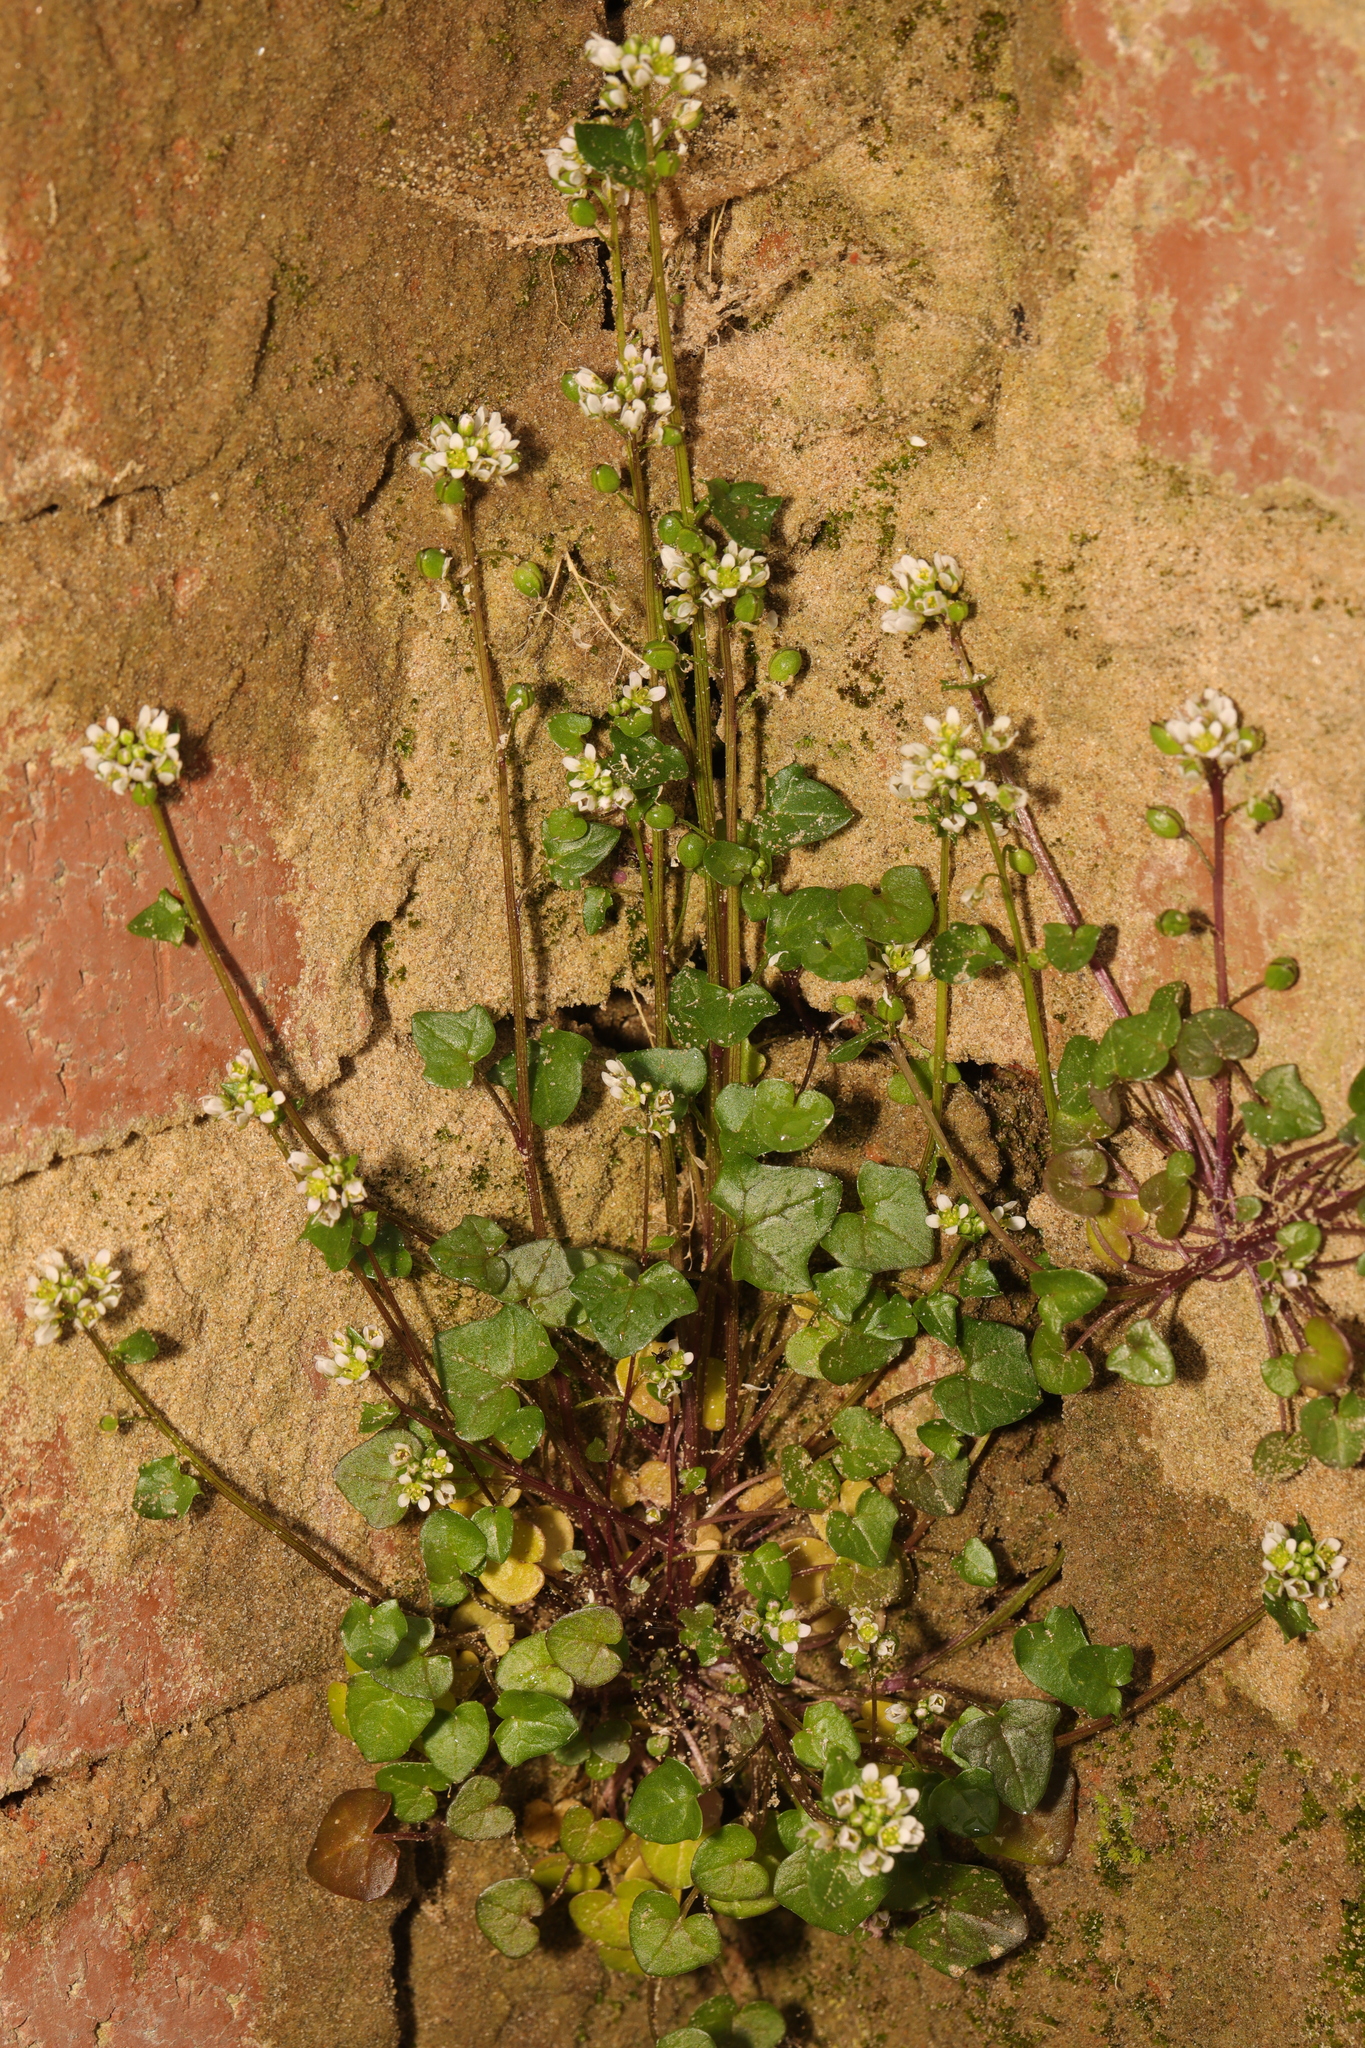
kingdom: Plantae
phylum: Tracheophyta
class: Magnoliopsida
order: Brassicales
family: Brassicaceae
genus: Cochlearia
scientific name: Cochlearia danica
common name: Early scurvygrass
